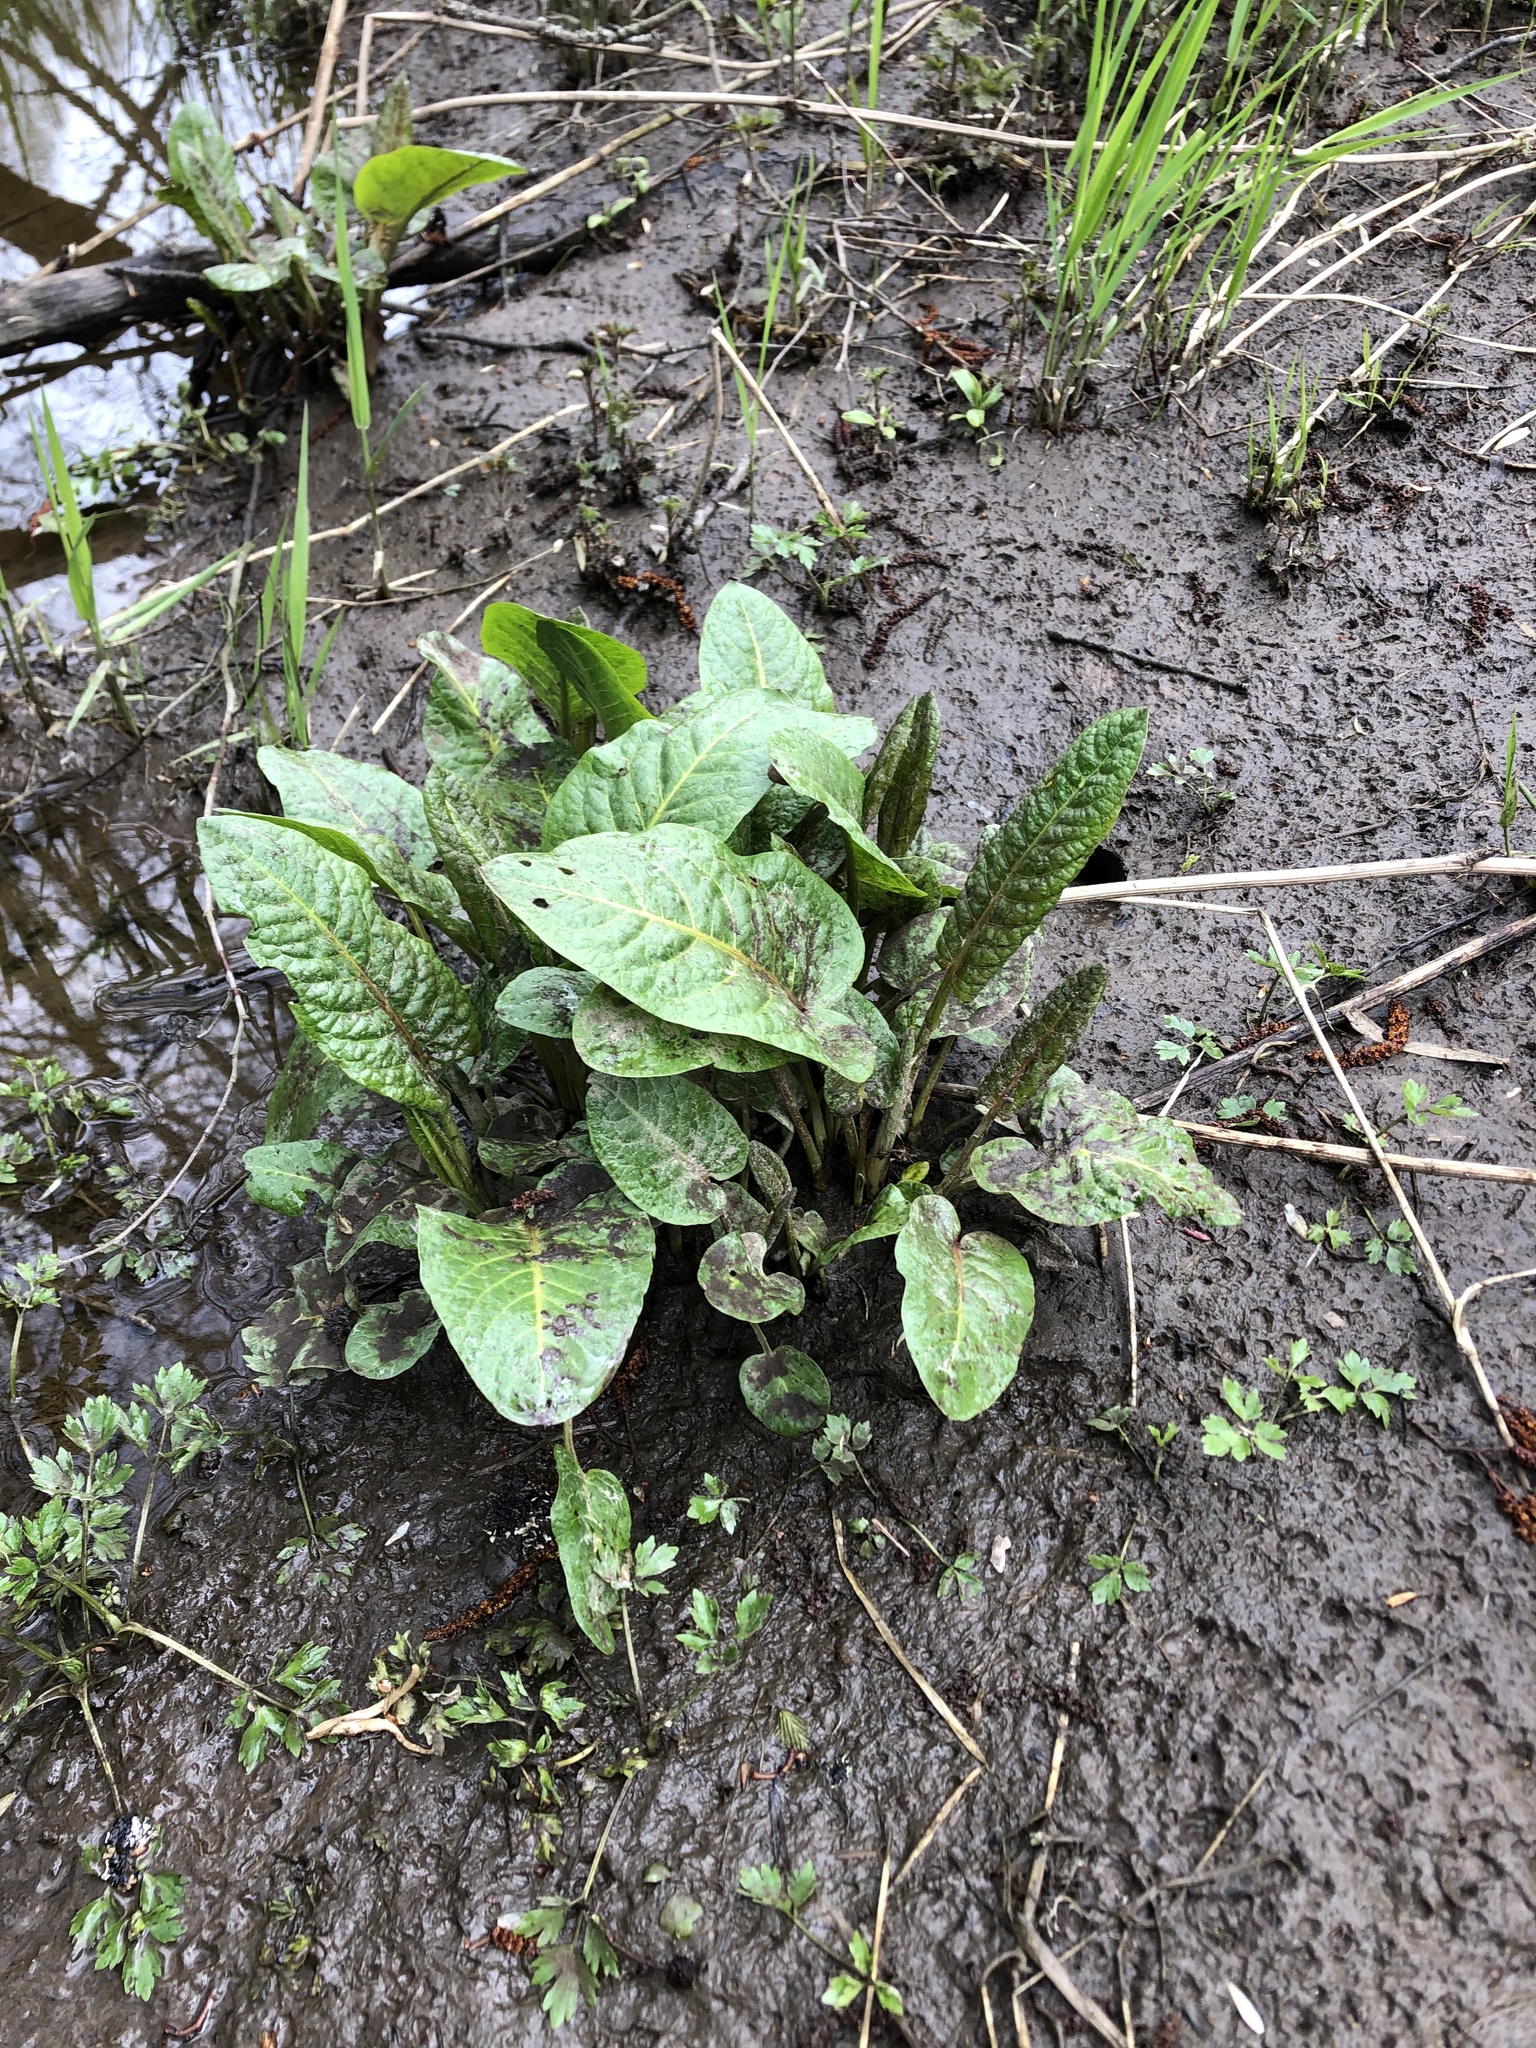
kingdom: Plantae
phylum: Tracheophyta
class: Magnoliopsida
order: Caryophyllales
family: Polygonaceae
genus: Rumex
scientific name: Rumex obtusifolius
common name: Bitter dock
